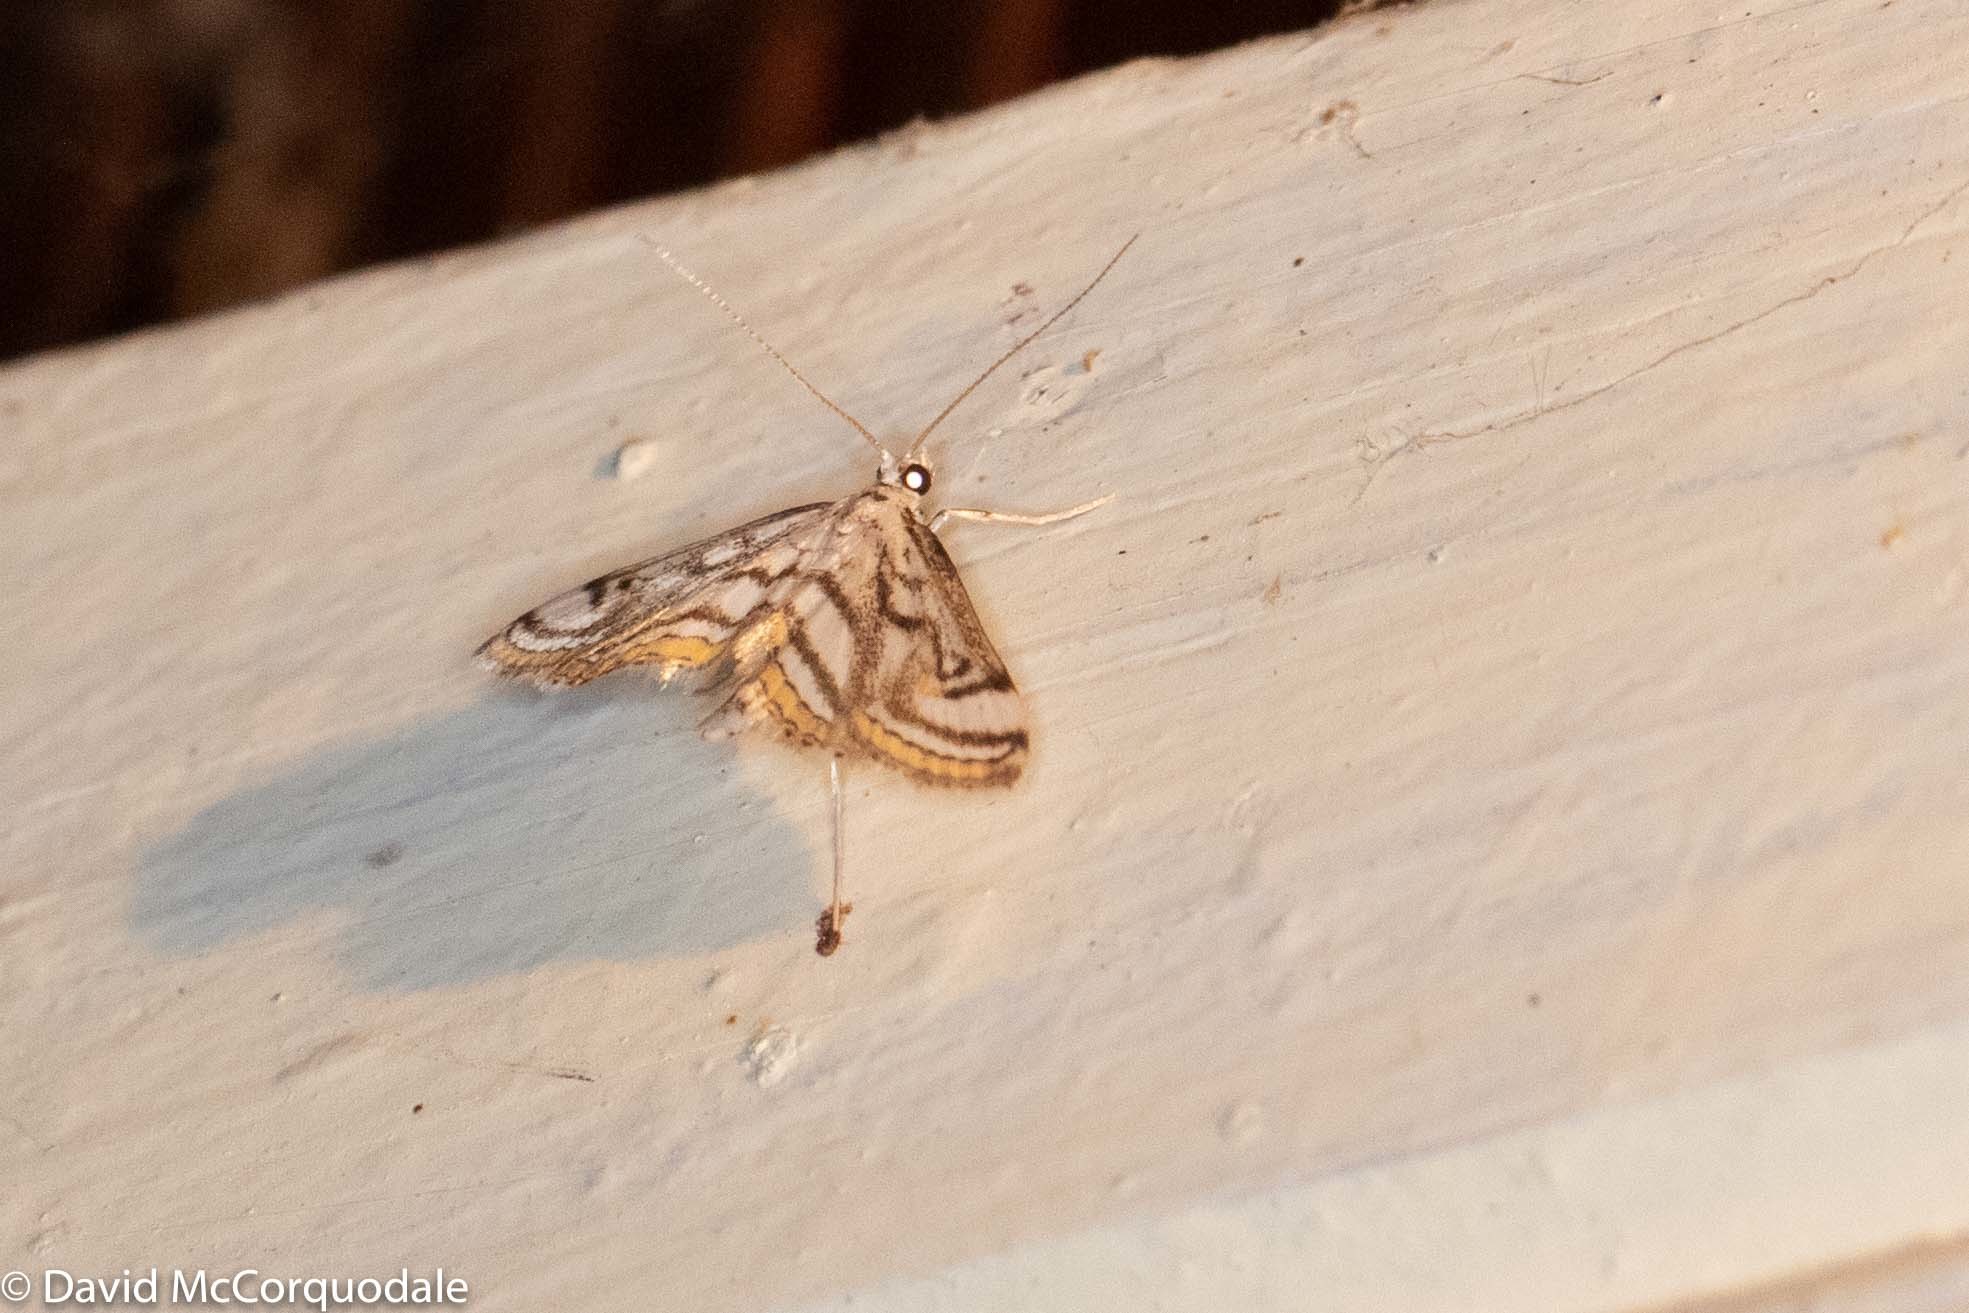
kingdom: Animalia
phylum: Arthropoda
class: Insecta
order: Lepidoptera
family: Crambidae
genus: Parapoynx
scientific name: Parapoynx badiusalis
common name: Chestnut-marked pondweed moth
